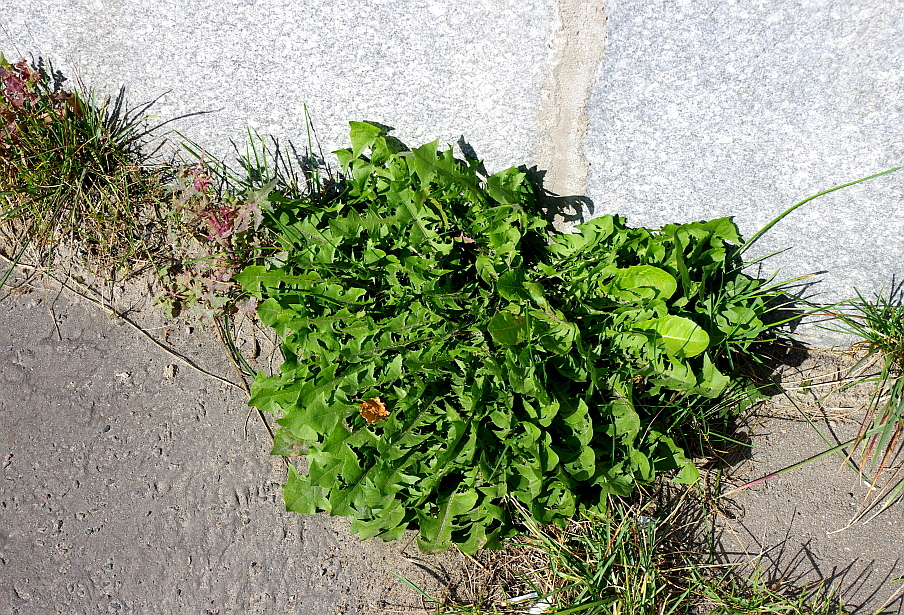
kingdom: Plantae
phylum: Tracheophyta
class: Magnoliopsida
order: Asterales
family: Asteraceae
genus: Taraxacum
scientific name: Taraxacum officinale
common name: Common dandelion
